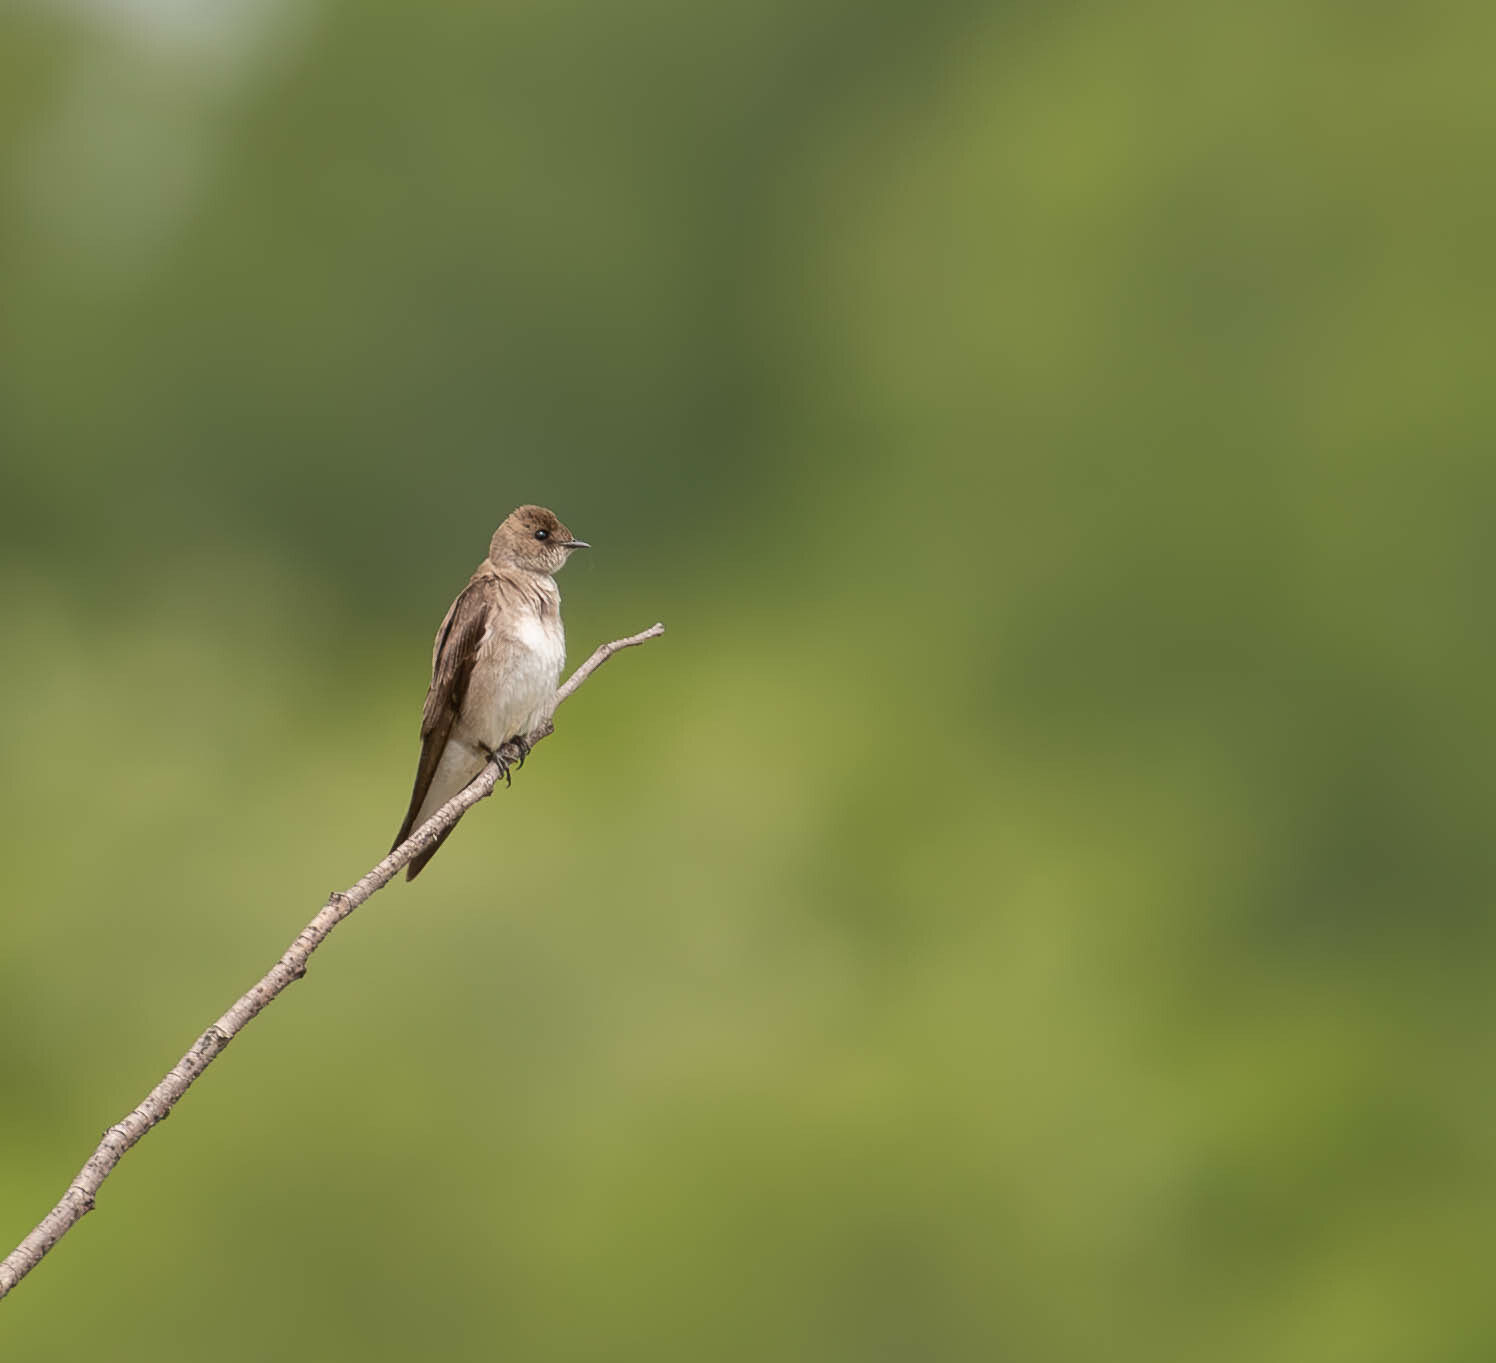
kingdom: Animalia
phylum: Chordata
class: Aves
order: Passeriformes
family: Hirundinidae
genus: Stelgidopteryx
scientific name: Stelgidopteryx serripennis
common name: Northern rough-winged swallow
